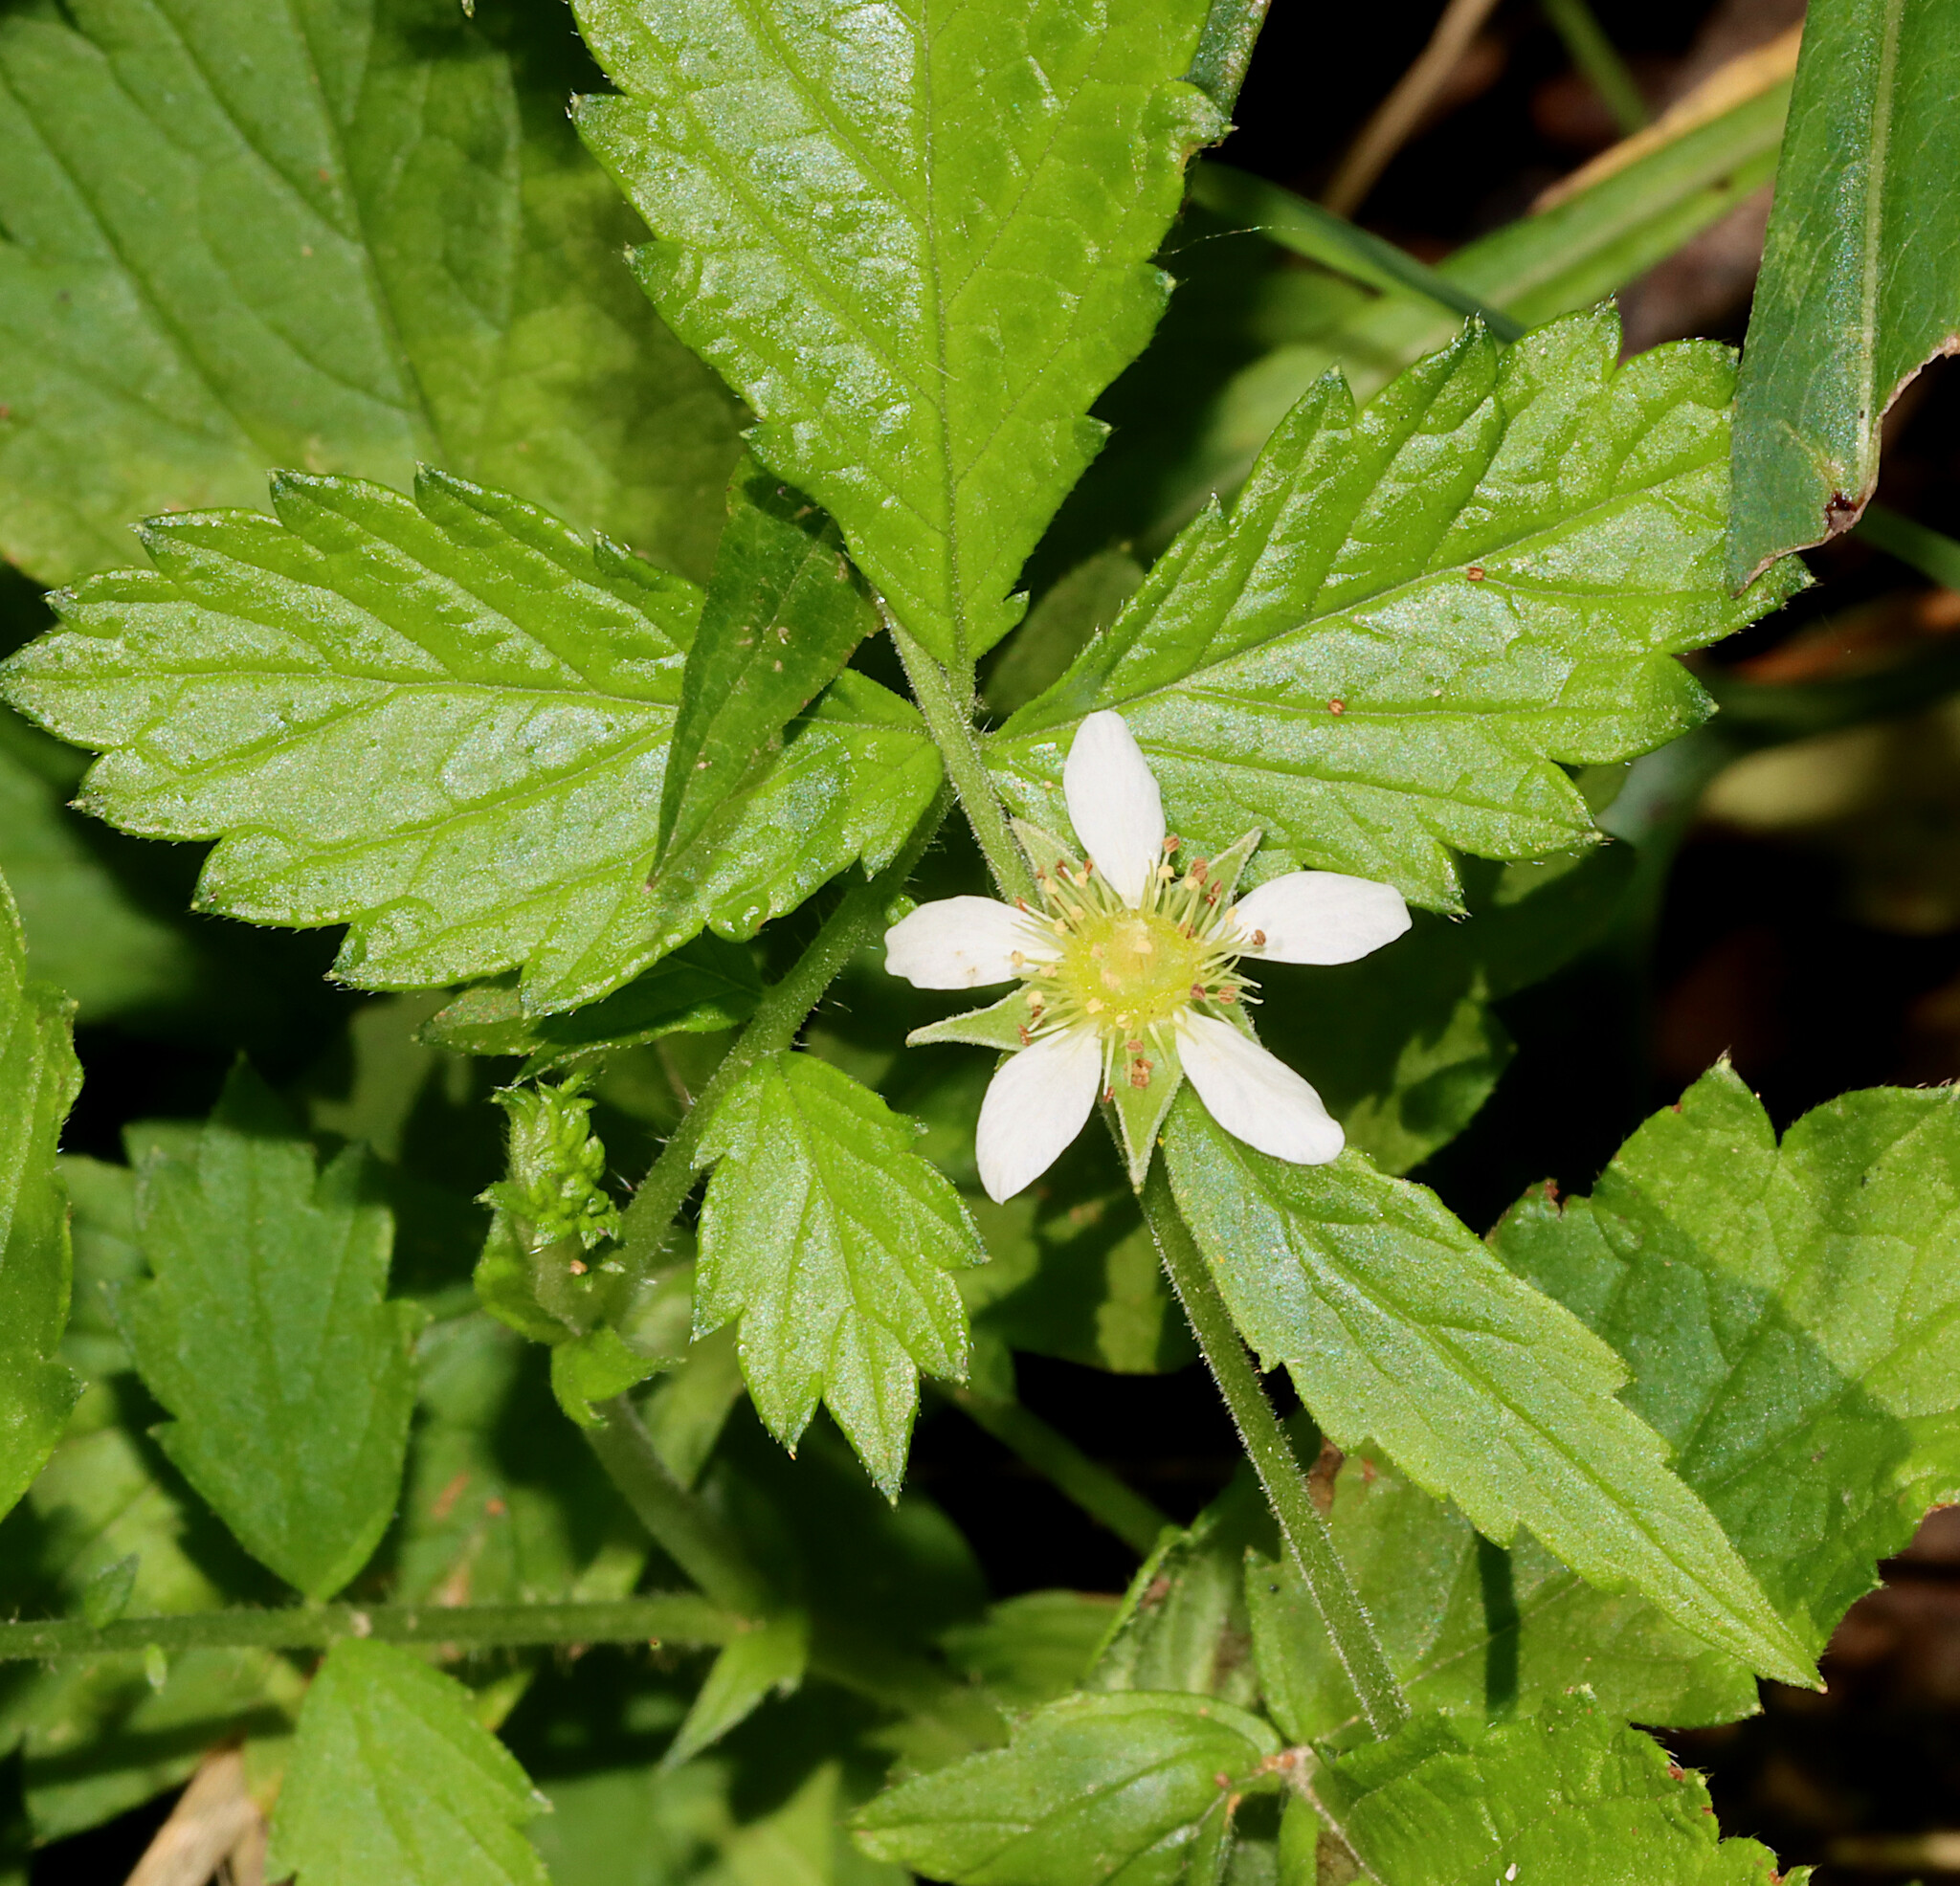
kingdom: Plantae
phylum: Tracheophyta
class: Magnoliopsida
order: Rosales
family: Rosaceae
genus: Geum
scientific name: Geum canadense
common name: White avens
